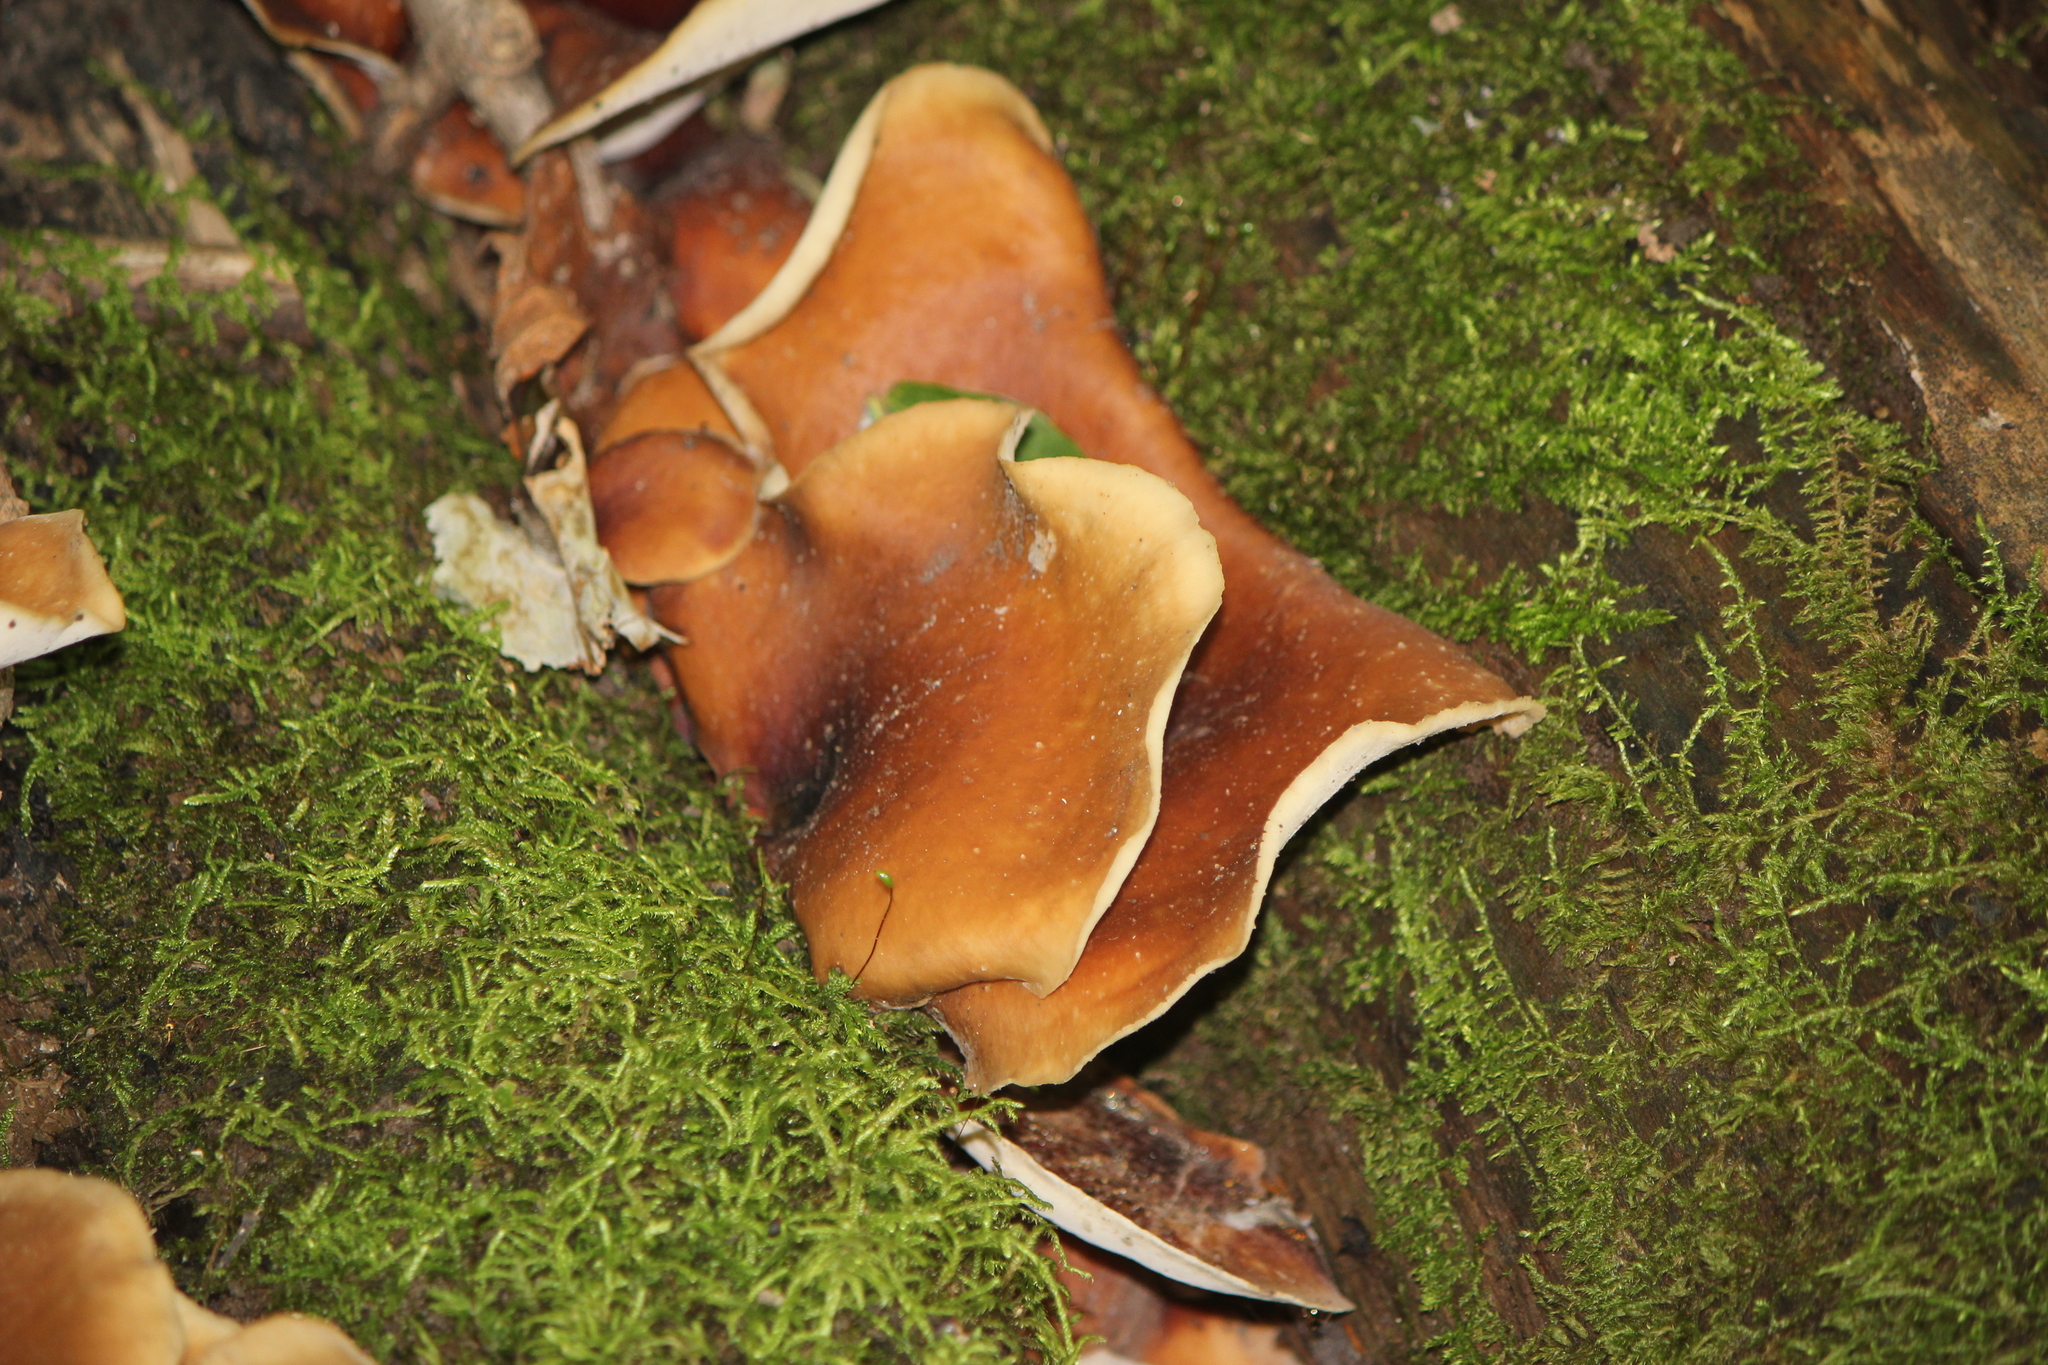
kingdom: Fungi
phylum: Basidiomycota
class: Agaricomycetes
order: Polyporales
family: Polyporaceae
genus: Picipes
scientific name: Picipes badius
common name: Bay polypore
